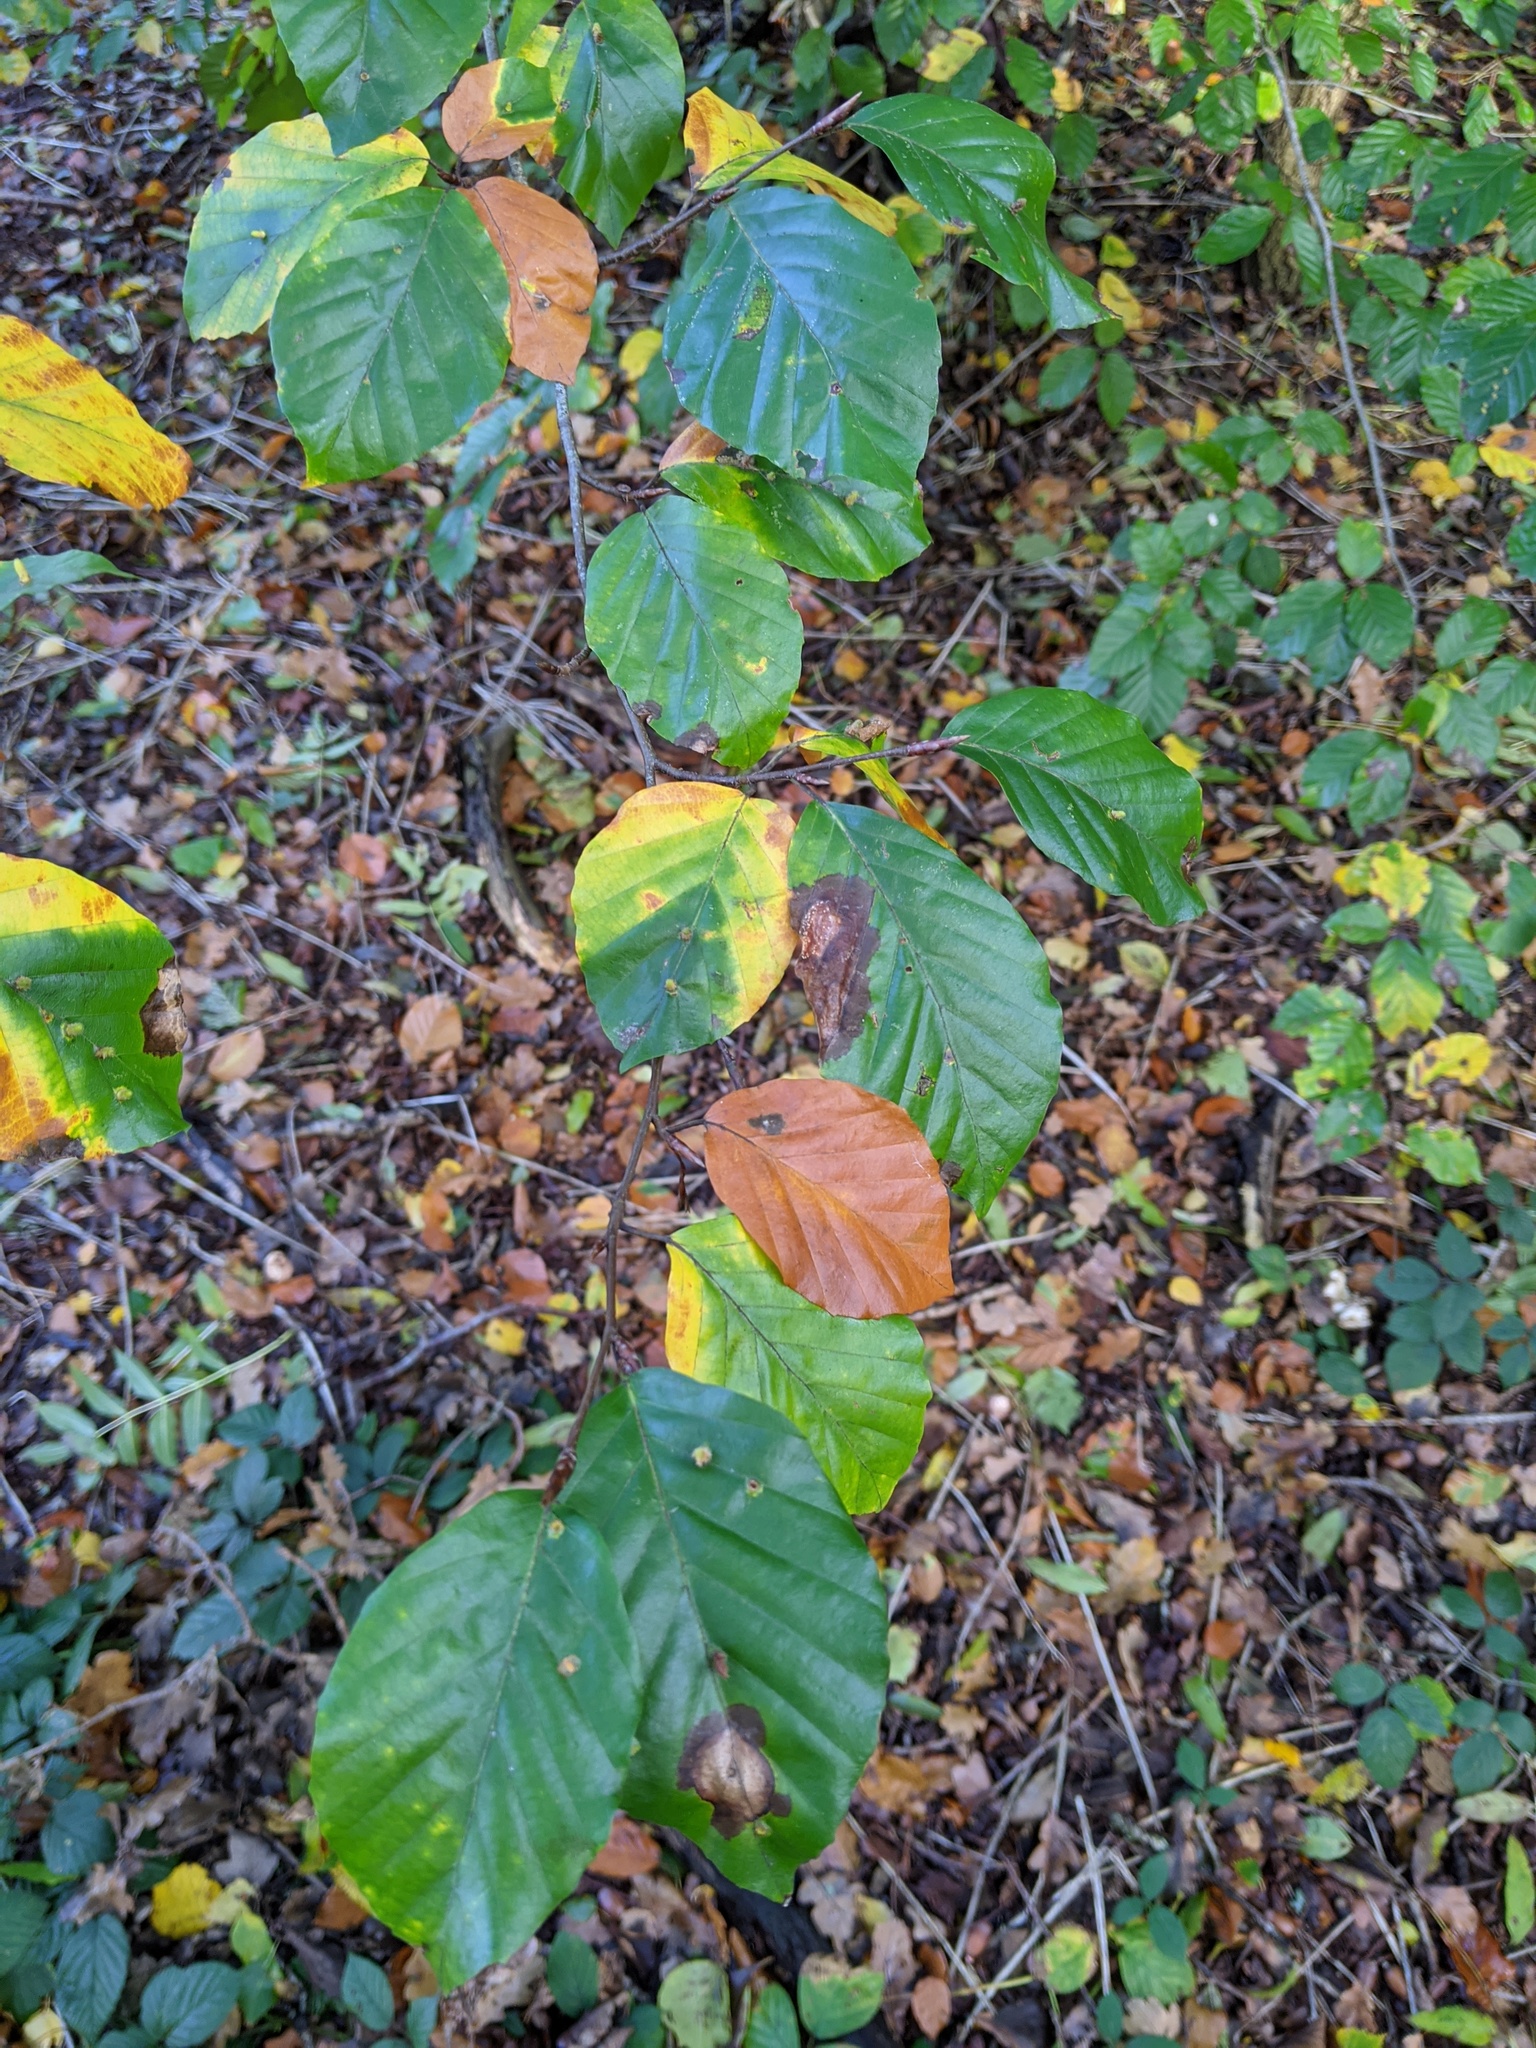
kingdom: Plantae
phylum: Tracheophyta
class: Magnoliopsida
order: Fagales
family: Fagaceae
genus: Fagus
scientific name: Fagus sylvatica
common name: Beech
